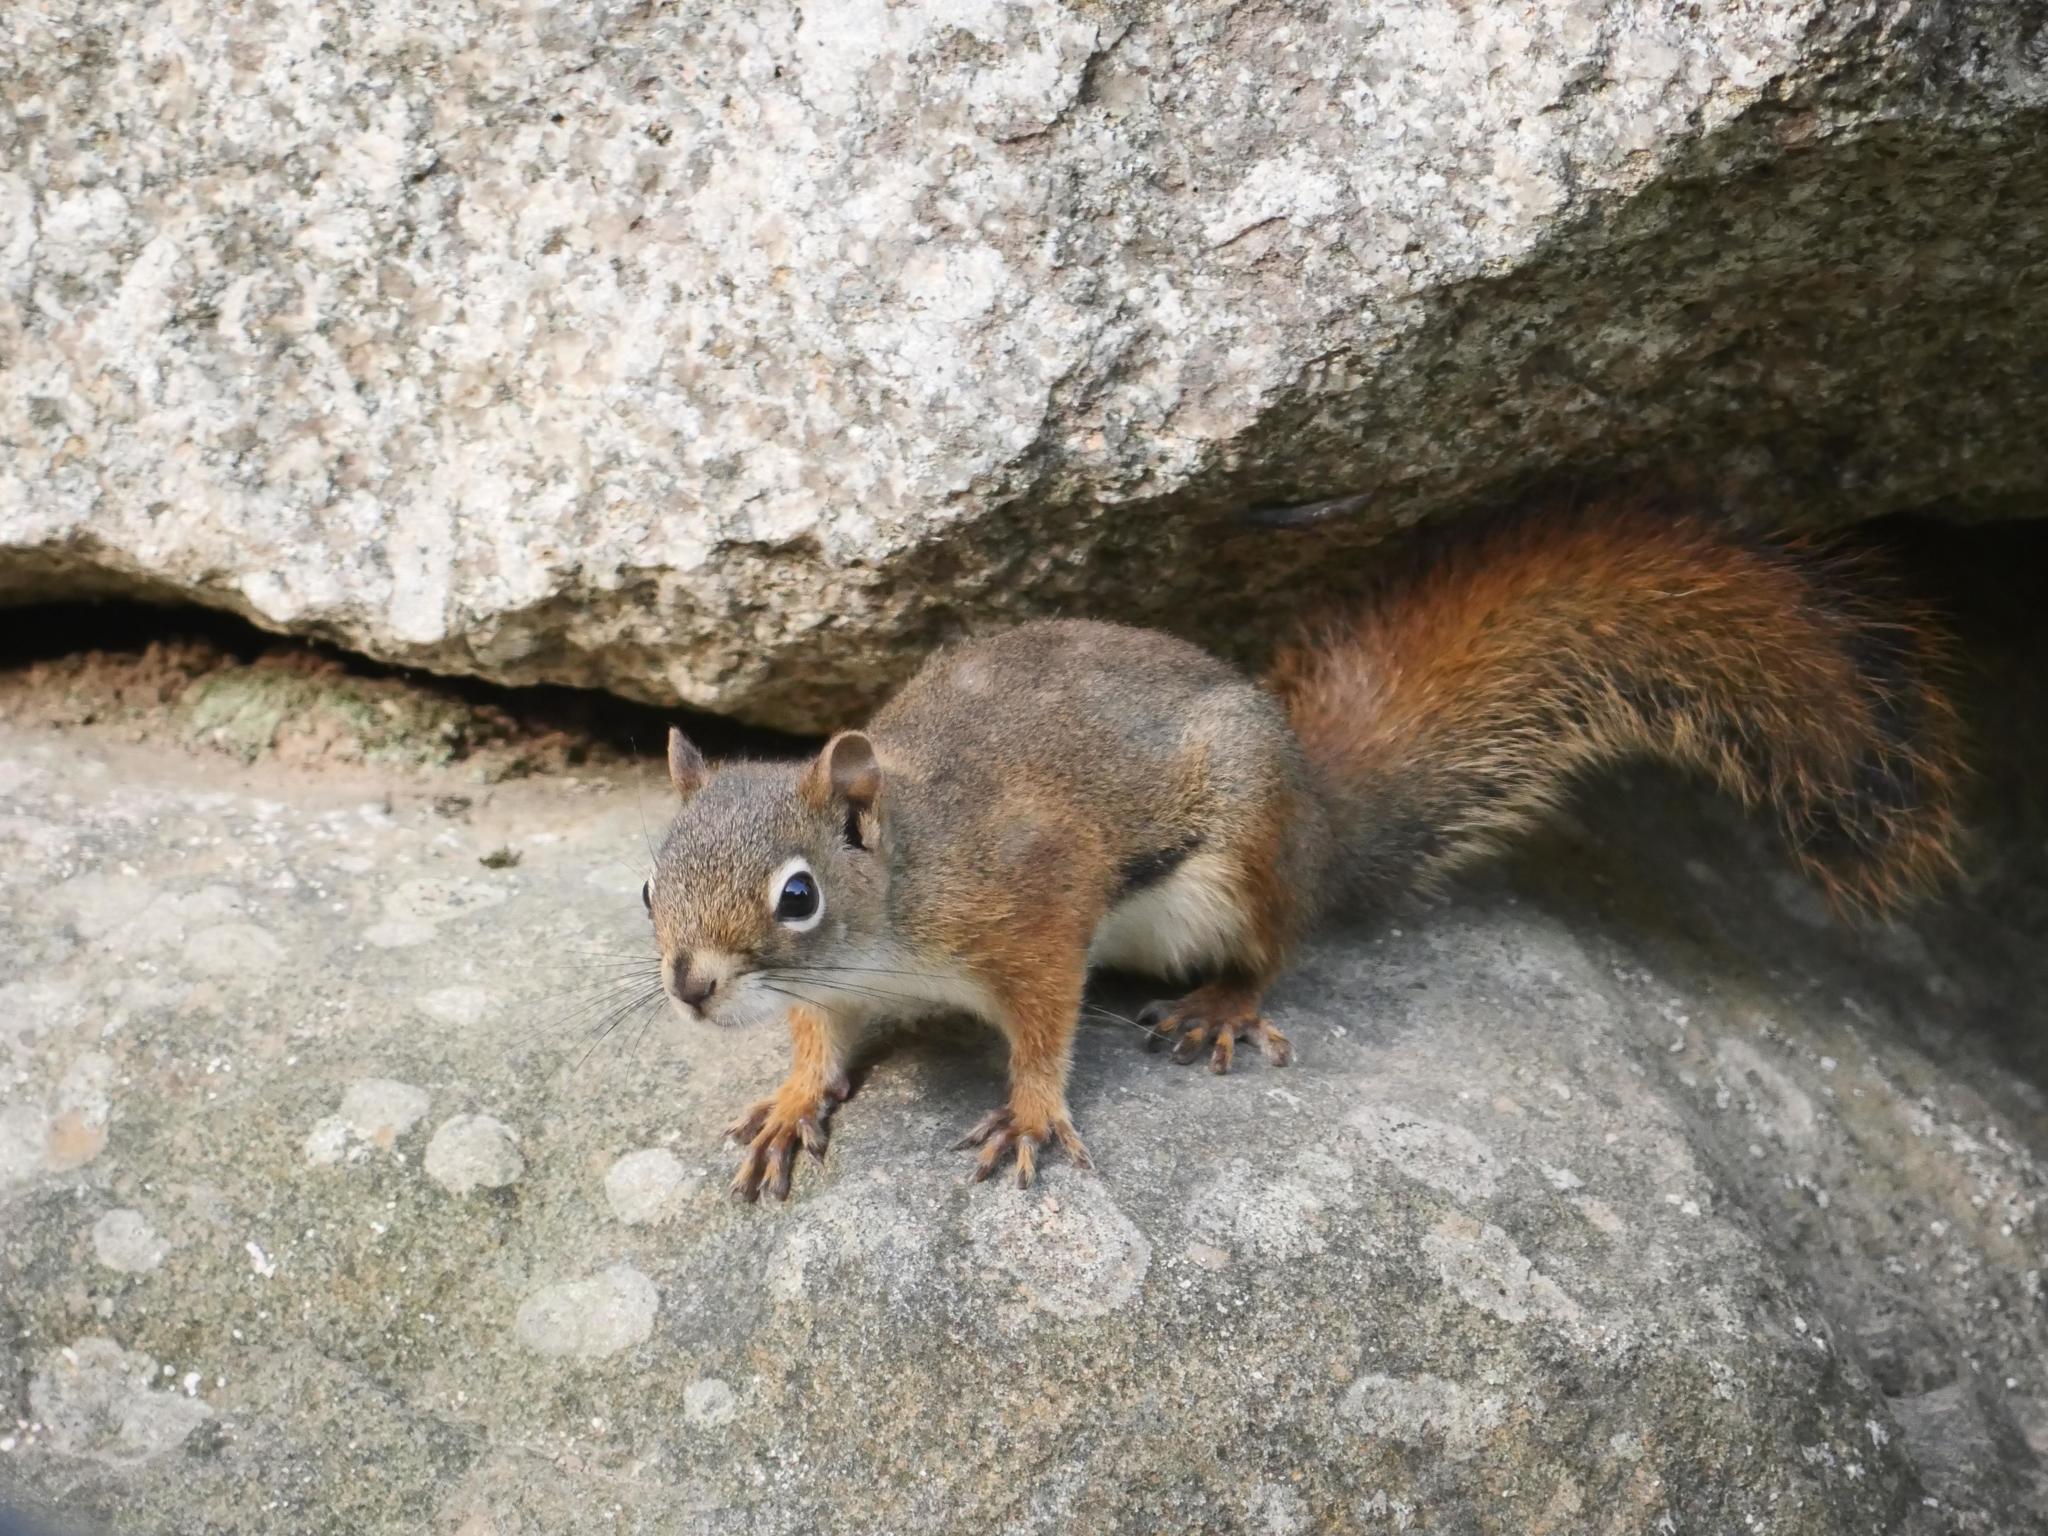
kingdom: Animalia
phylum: Chordata
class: Mammalia
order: Rodentia
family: Sciuridae
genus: Tamiasciurus
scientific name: Tamiasciurus hudsonicus
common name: Red squirrel
